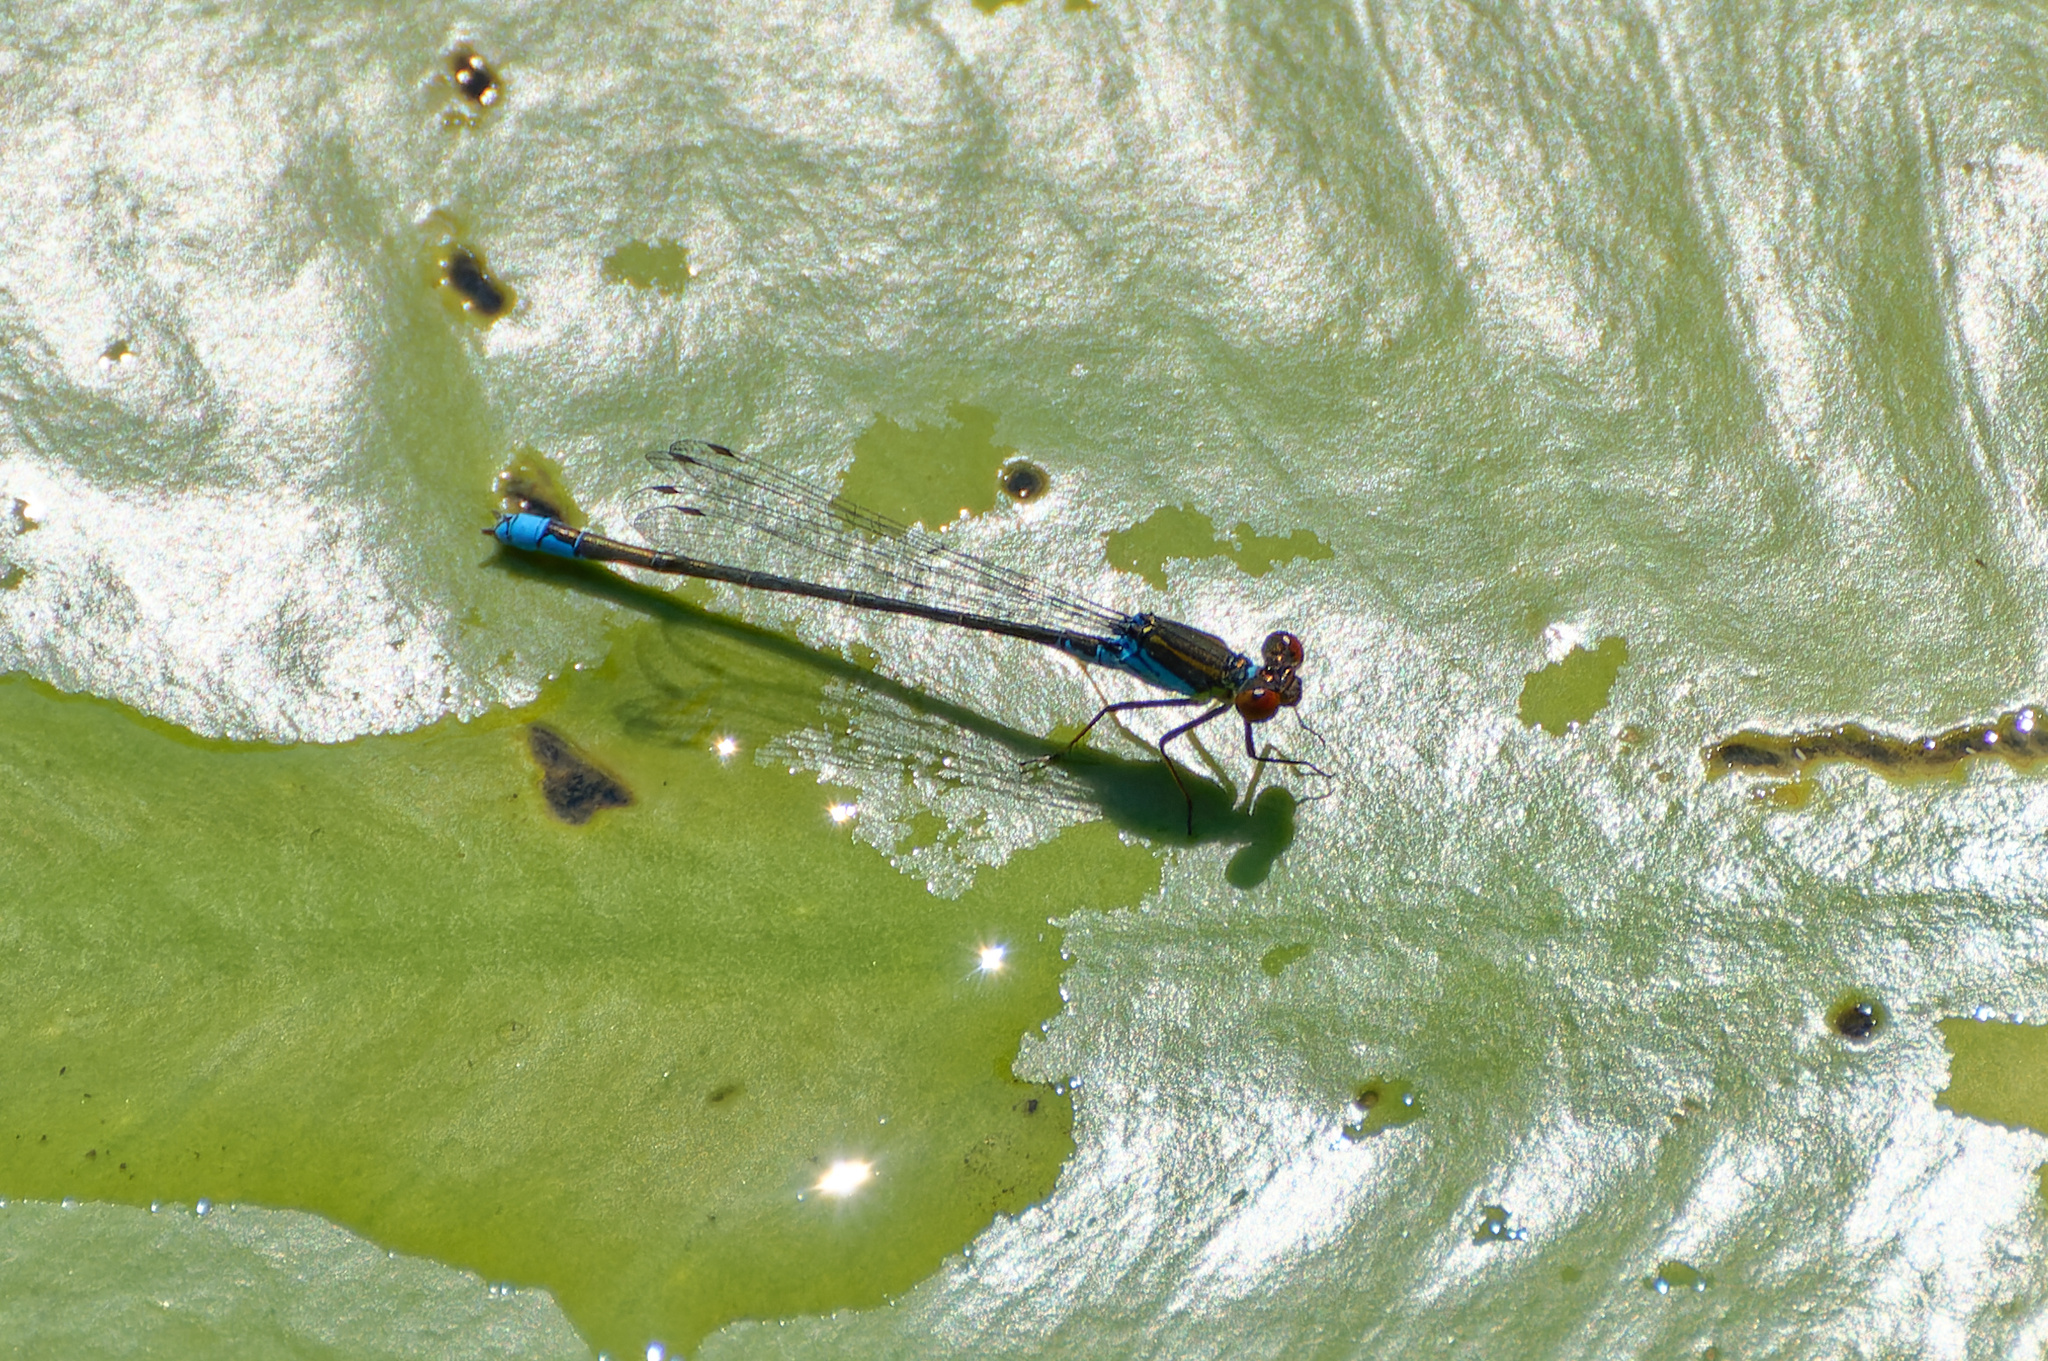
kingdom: Animalia
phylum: Arthropoda
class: Insecta
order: Odonata
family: Coenagrionidae
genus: Erythromma
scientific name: Erythromma viridulum
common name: Small red-eyed damselfly
